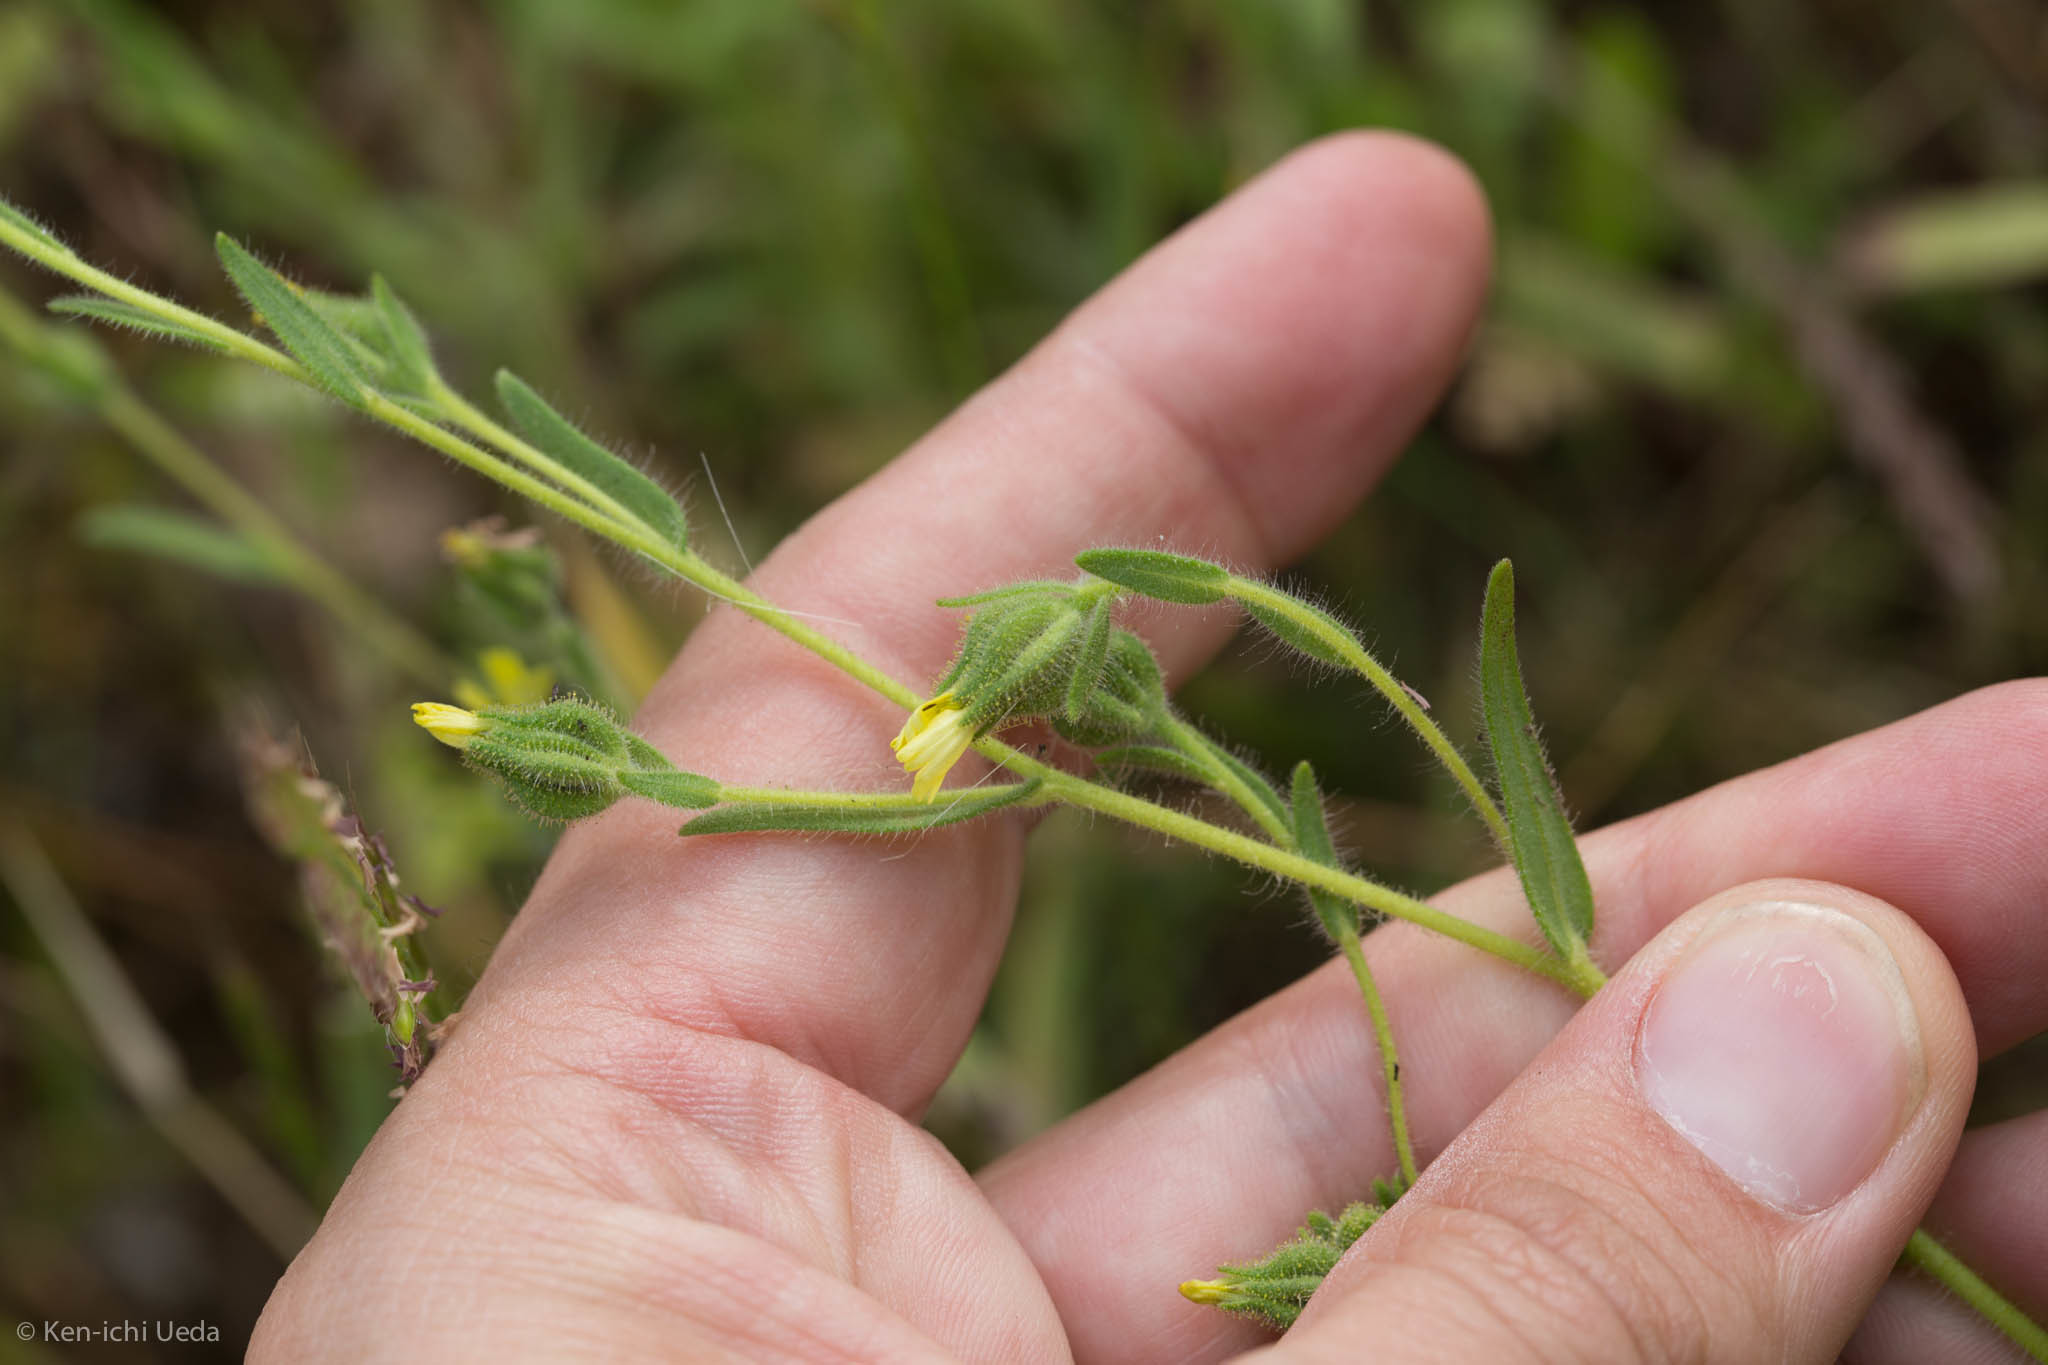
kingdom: Plantae
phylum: Tracheophyta
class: Magnoliopsida
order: Asterales
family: Asteraceae
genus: Madia
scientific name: Madia gracilis
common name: Grassy tarweed
